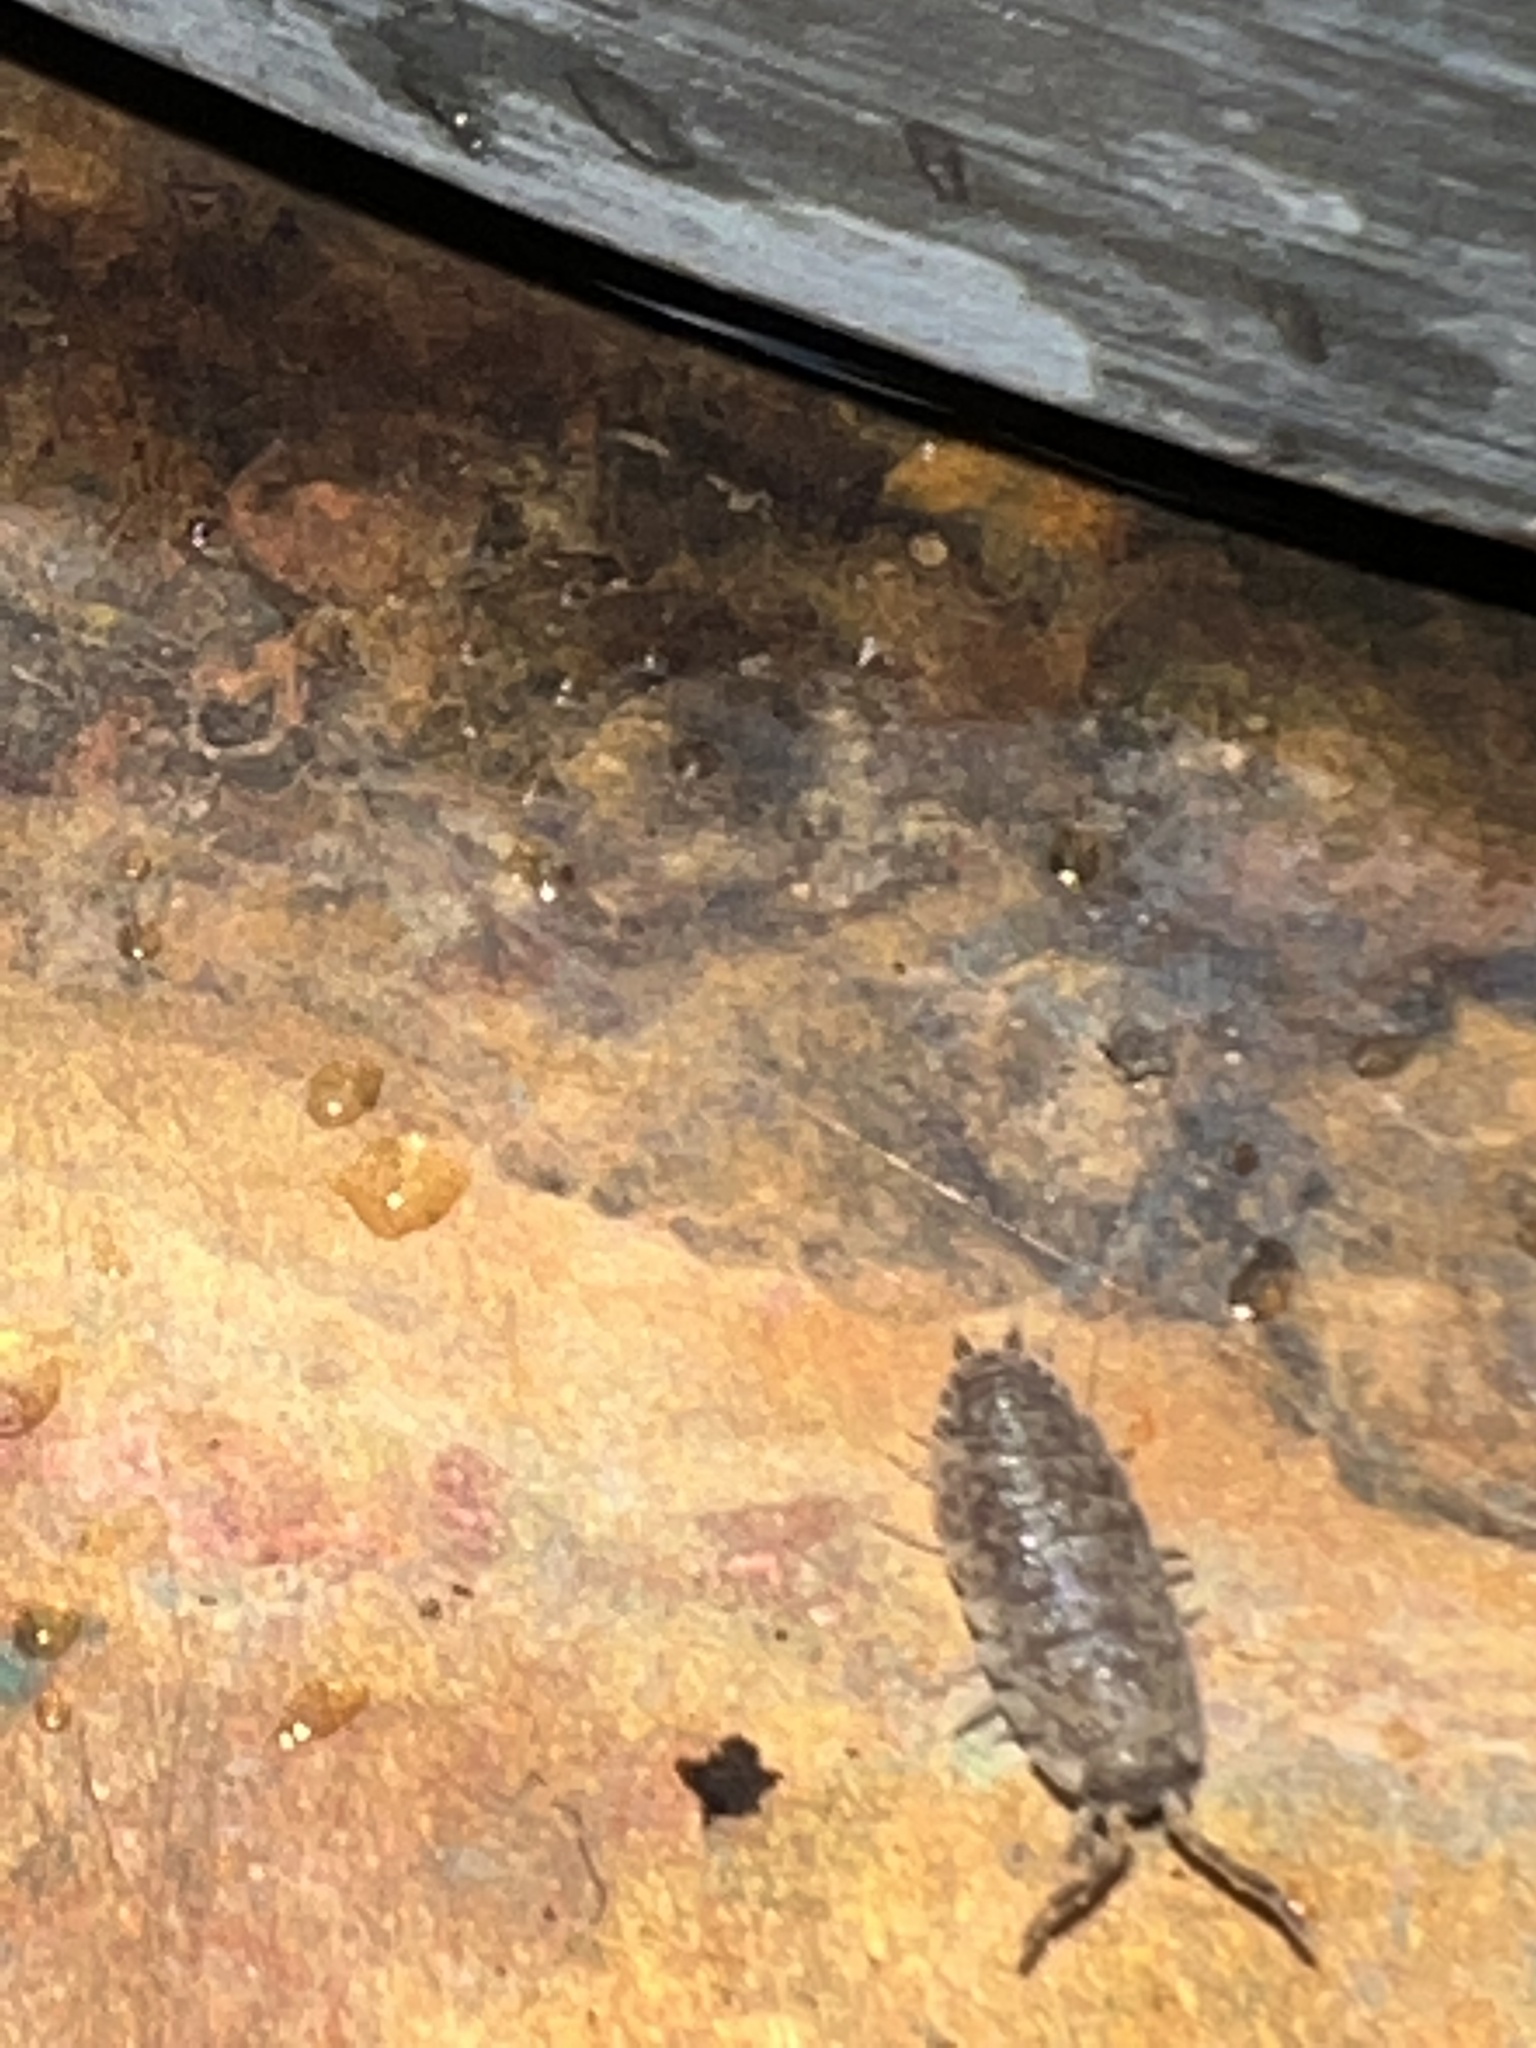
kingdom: Animalia
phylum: Arthropoda
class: Malacostraca
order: Isopoda
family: Porcellionidae
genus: Porcellio
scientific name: Porcellio scaber
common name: Common rough woodlouse
